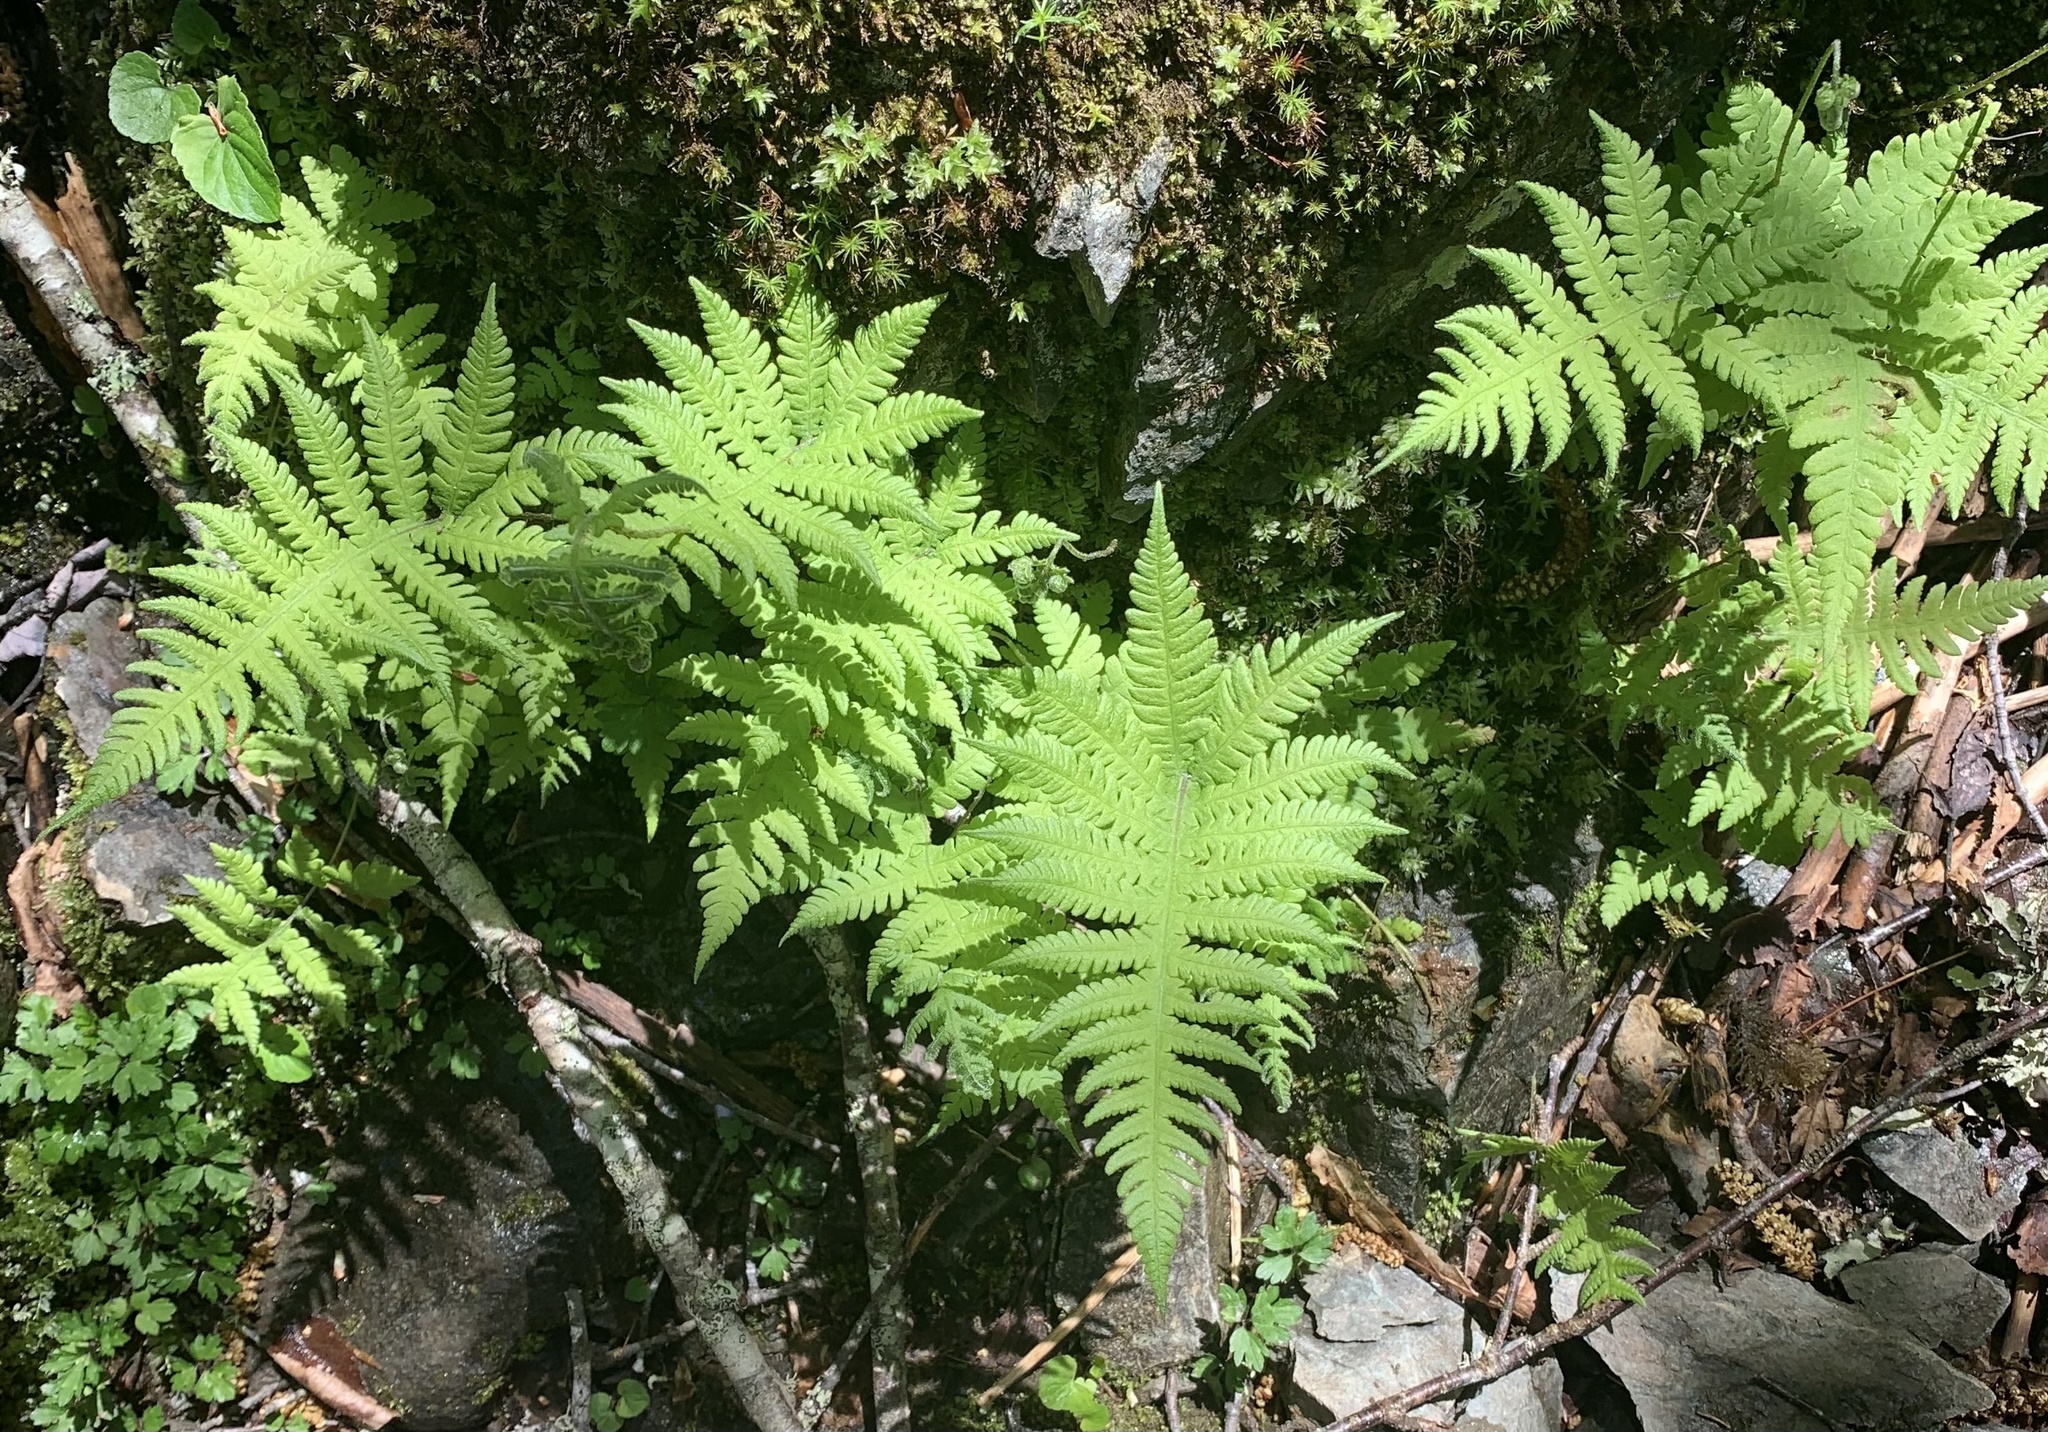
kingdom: Plantae
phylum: Tracheophyta
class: Polypodiopsida
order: Polypodiales
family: Thelypteridaceae
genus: Phegopteris
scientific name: Phegopteris connectilis
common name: Beech fern
